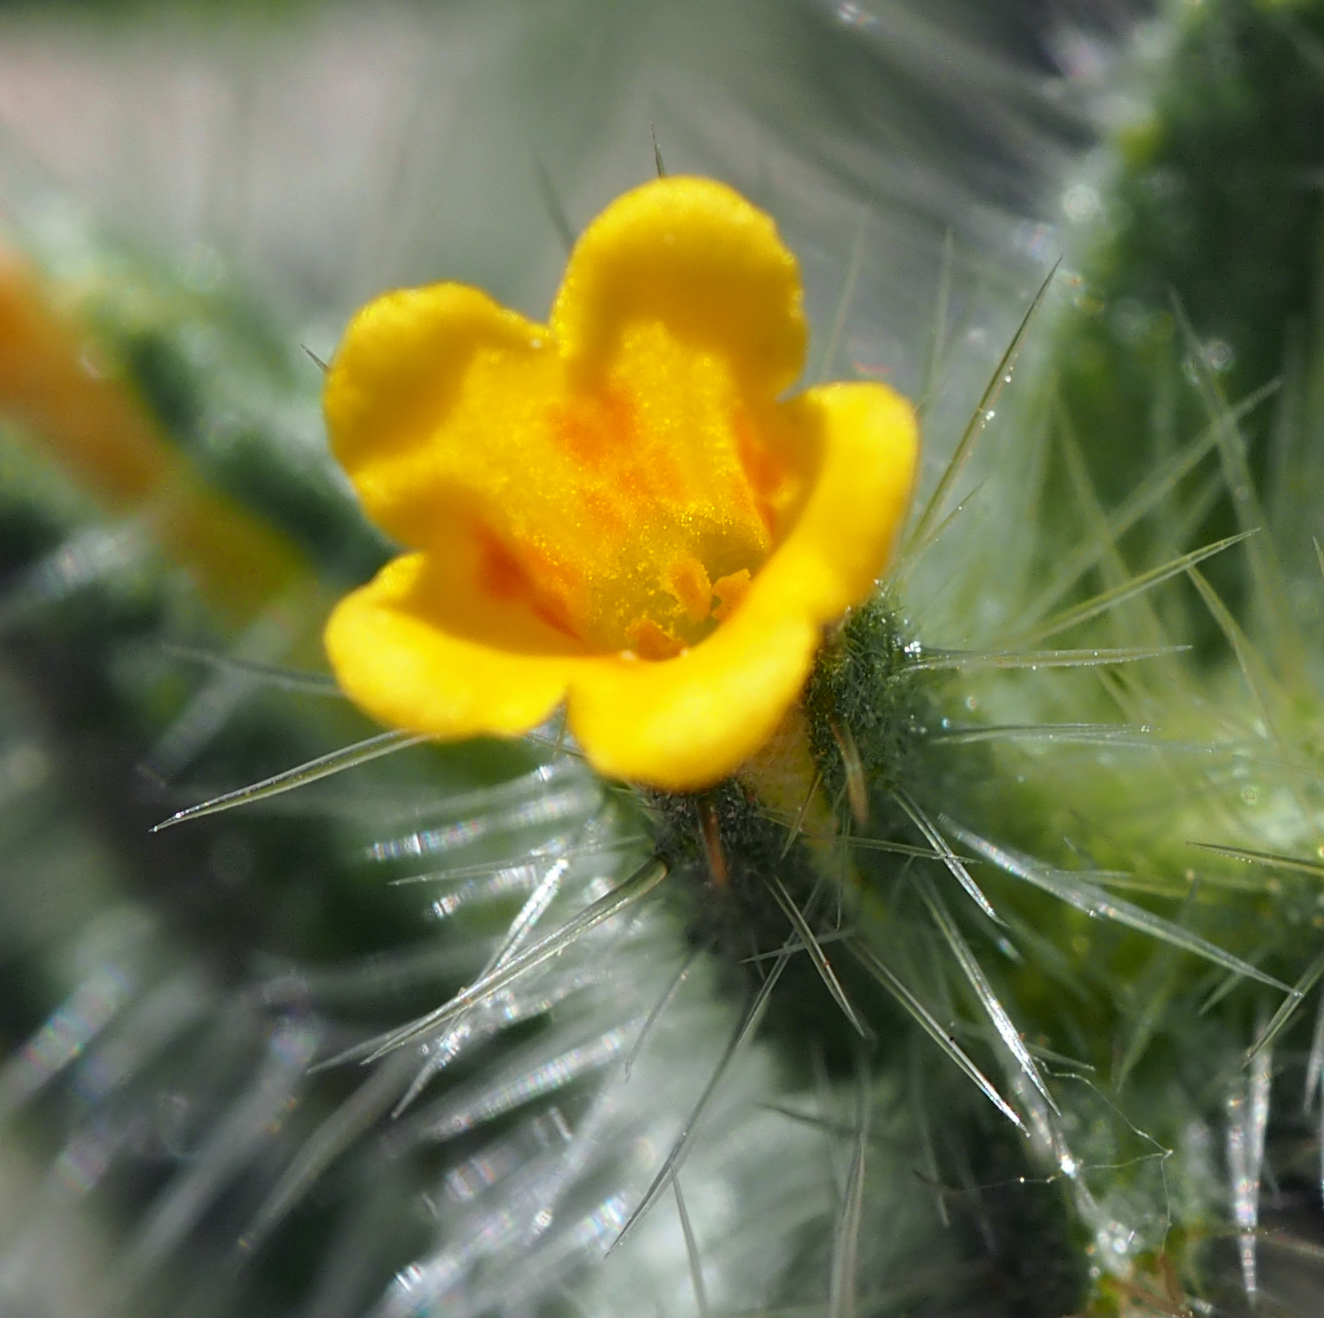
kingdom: Plantae
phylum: Tracheophyta
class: Magnoliopsida
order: Boraginales
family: Boraginaceae
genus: Amsinckia
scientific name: Amsinckia tessellata
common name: Tessellate fiddleneck
